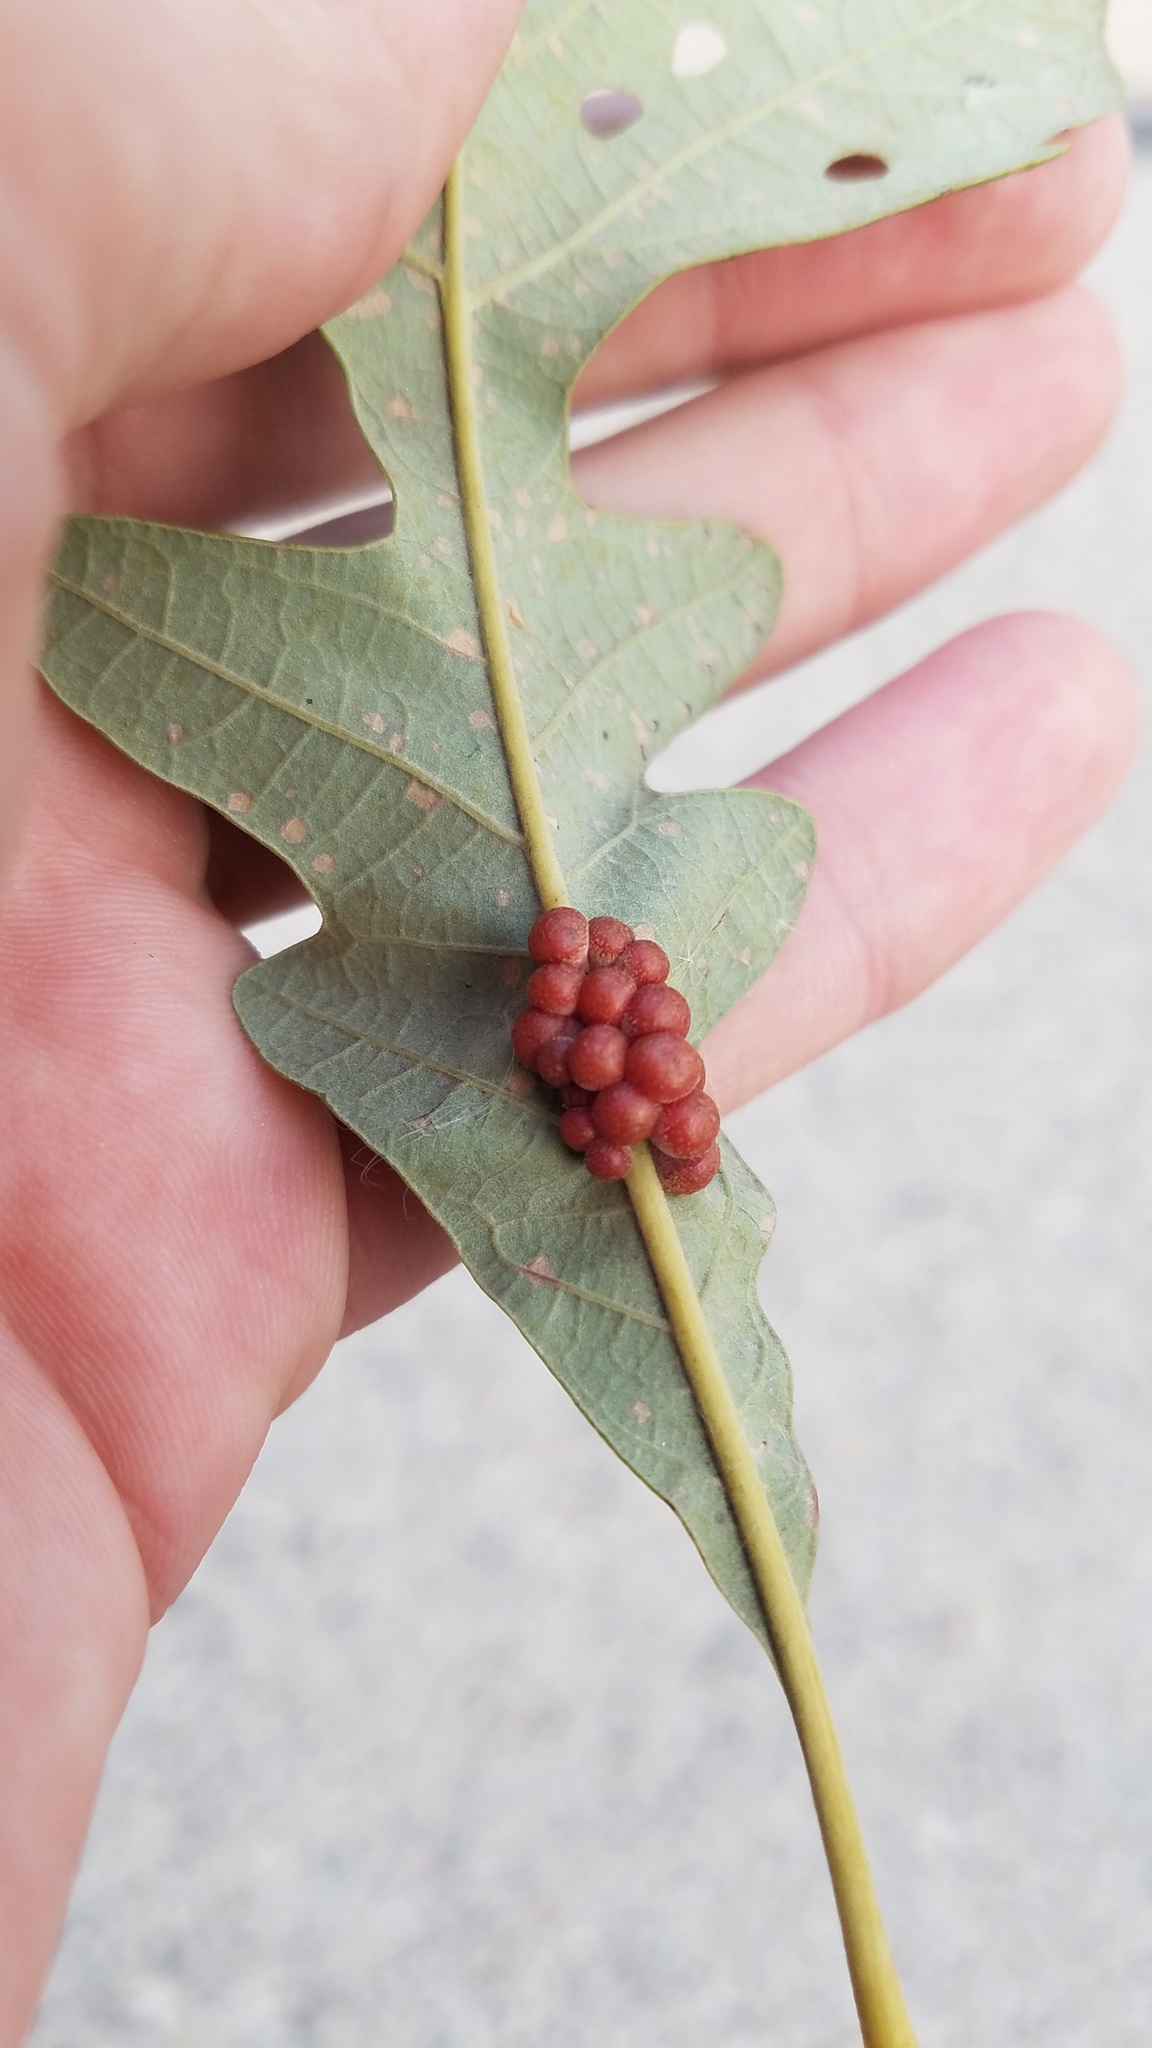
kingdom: Animalia
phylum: Arthropoda
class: Insecta
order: Hymenoptera
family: Cynipidae
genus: Andricus
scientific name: Andricus
